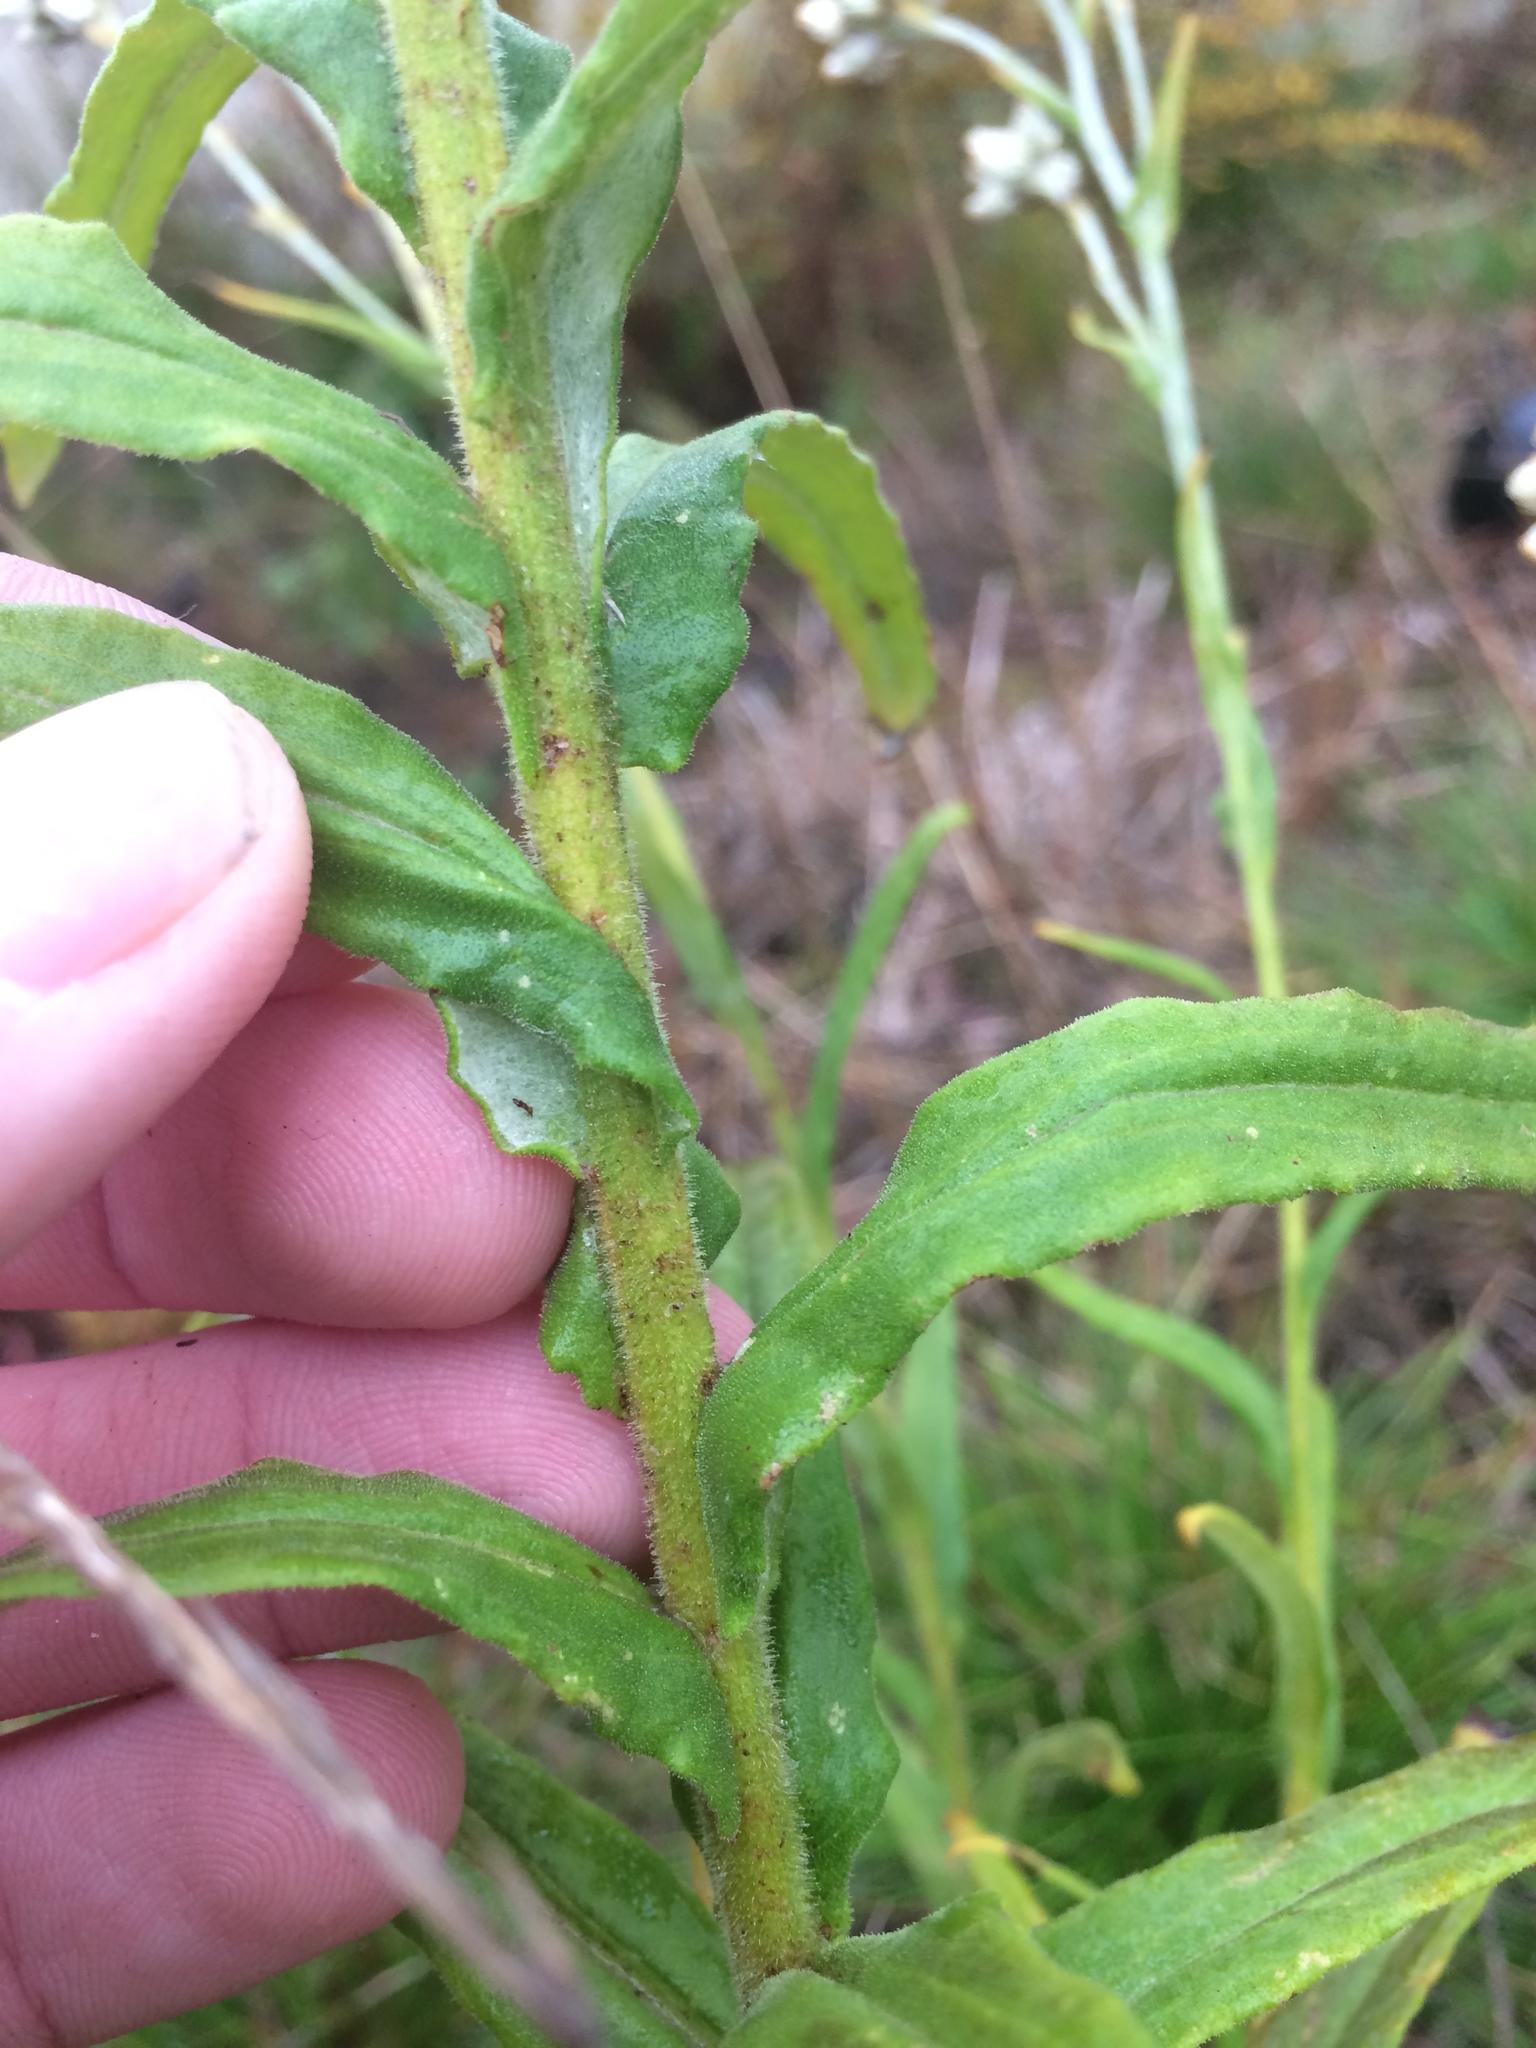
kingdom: Plantae
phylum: Tracheophyta
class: Magnoliopsida
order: Asterales
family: Asteraceae
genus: Pseudognaphalium
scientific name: Pseudognaphalium macounii
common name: Clammy cudweed
